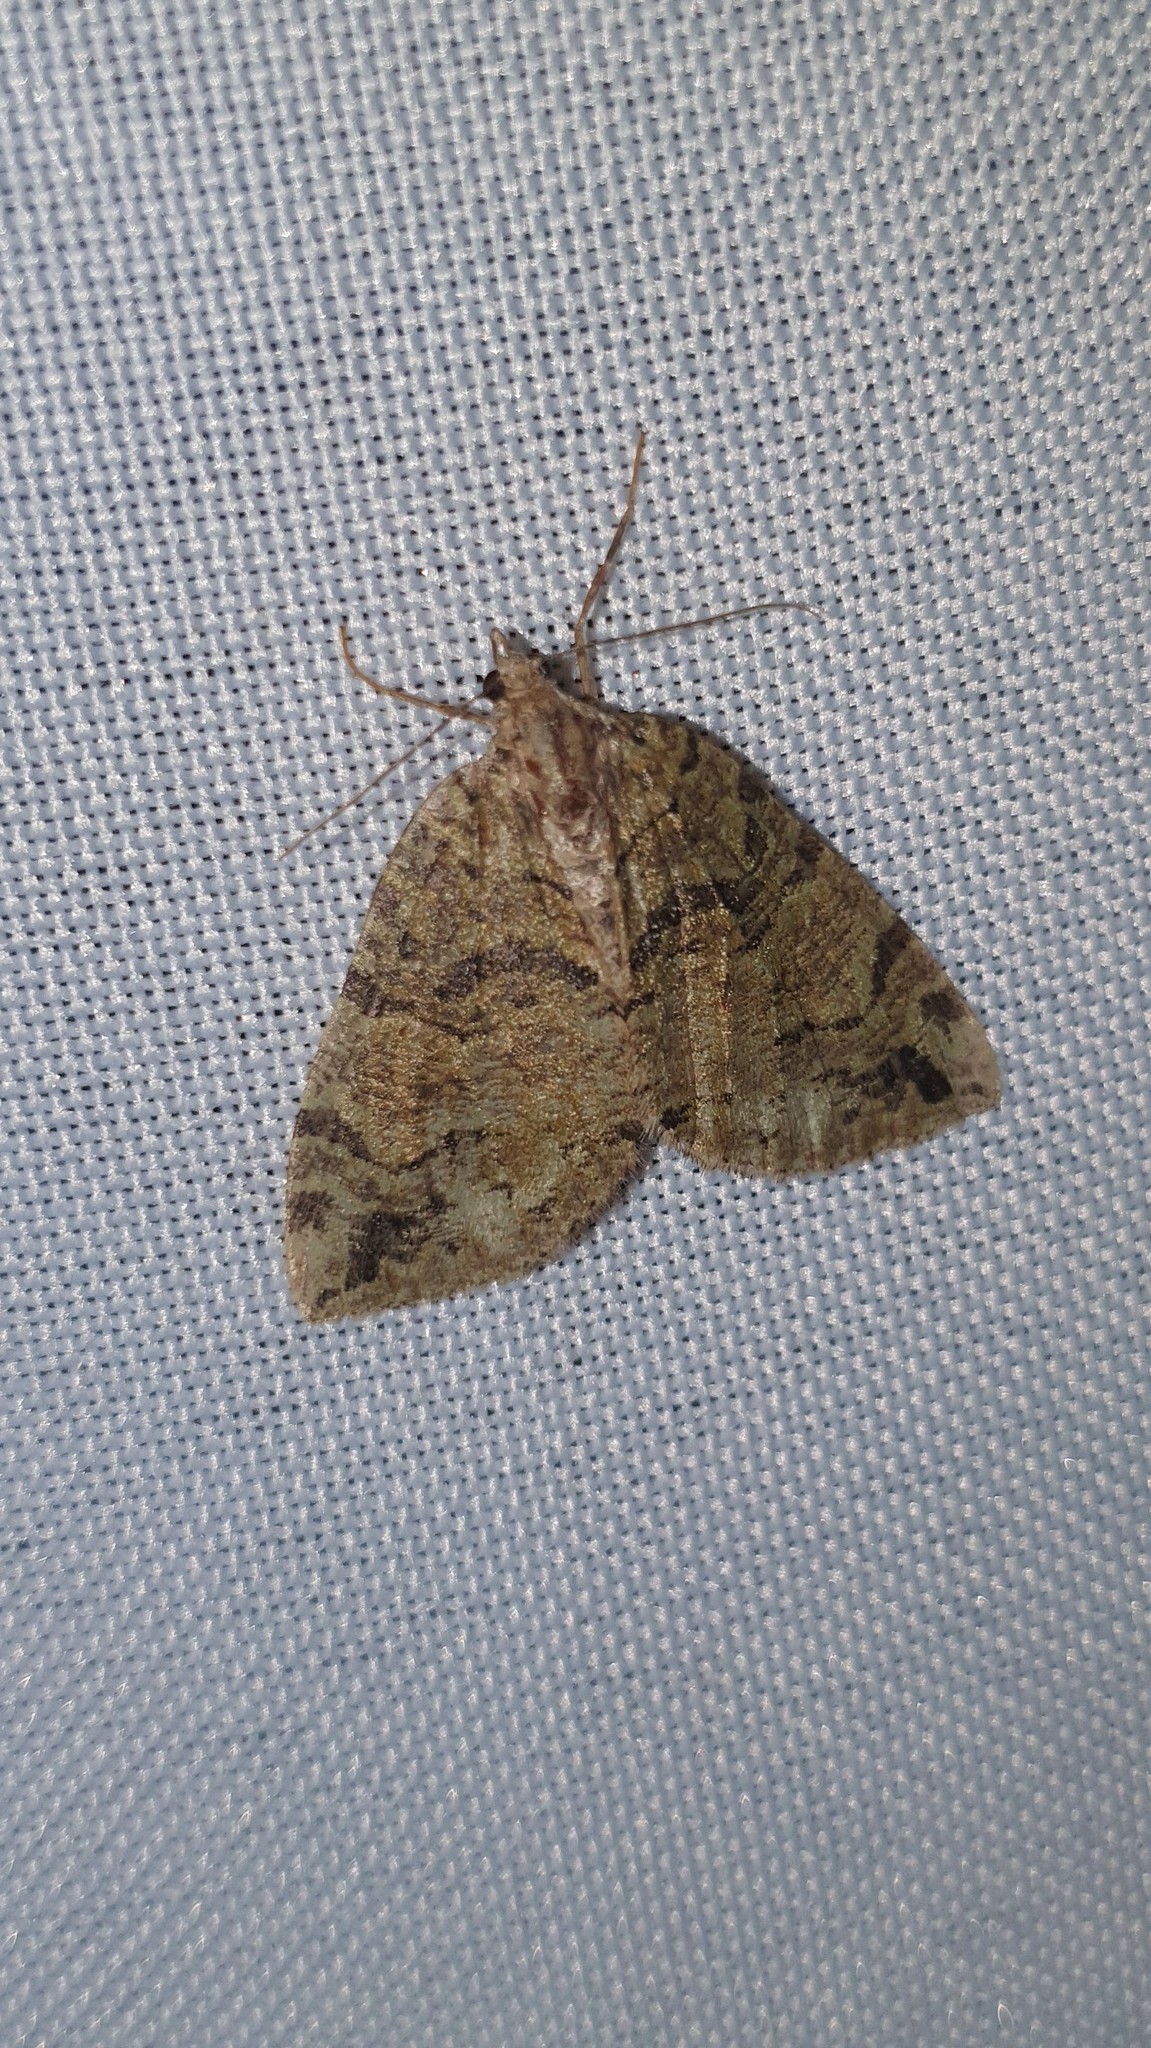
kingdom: Animalia
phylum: Arthropoda
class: Insecta
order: Lepidoptera
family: Geometridae
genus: Hydriomena
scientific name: Hydriomena furcata
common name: July highflyer
